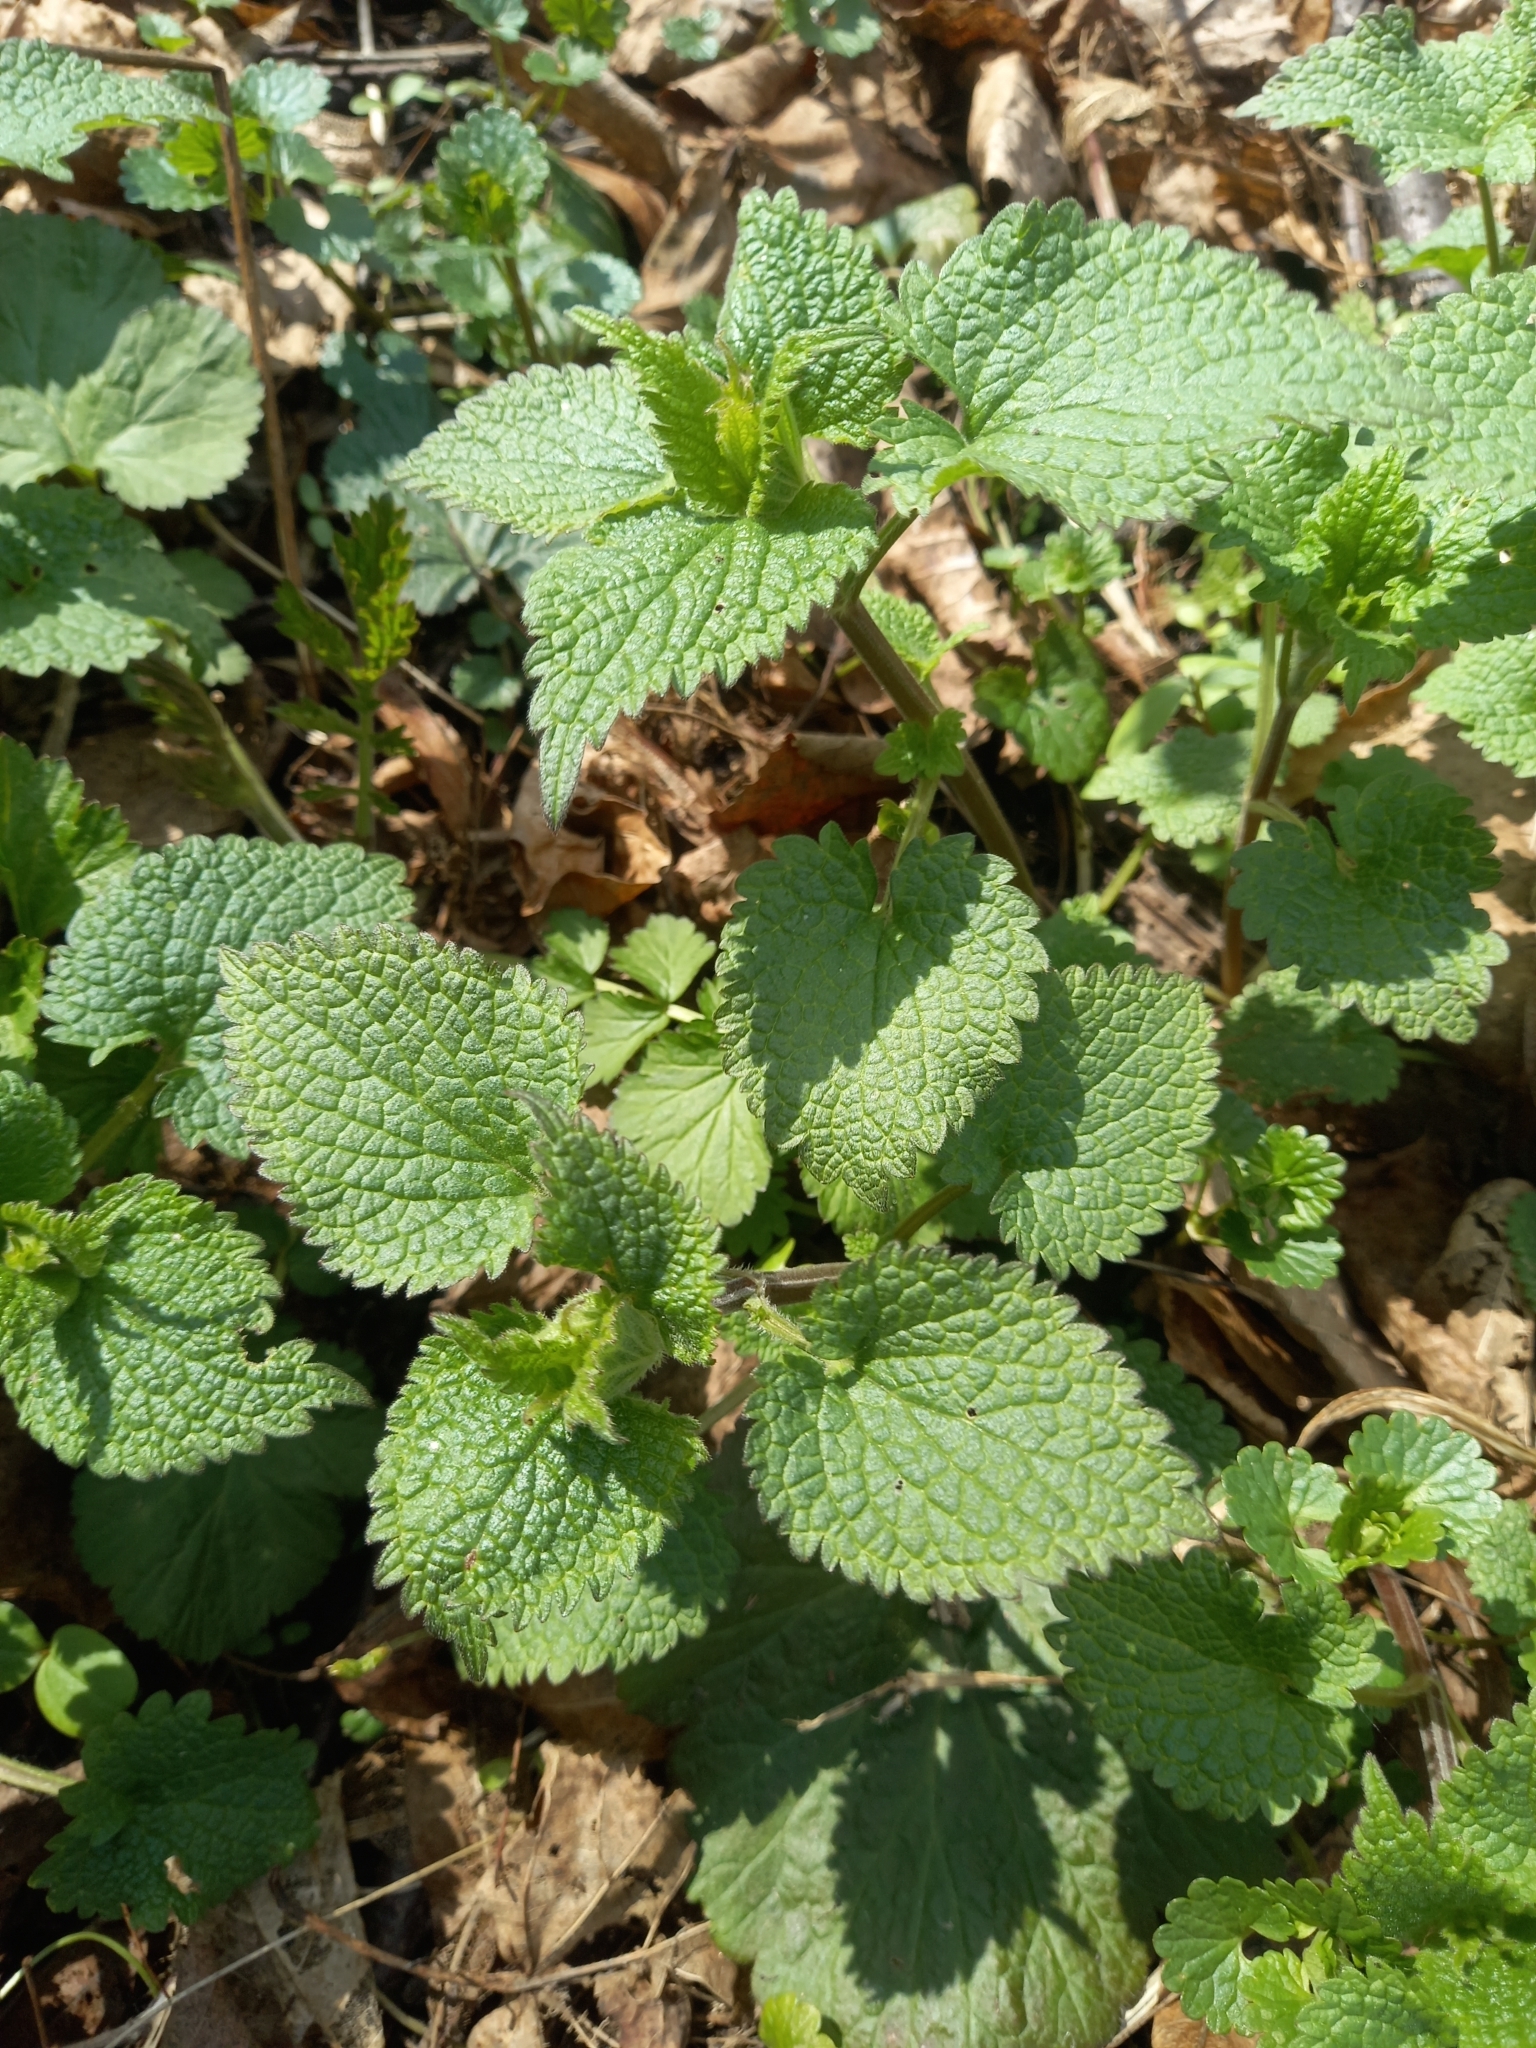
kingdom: Plantae
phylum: Tracheophyta
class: Magnoliopsida
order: Lamiales
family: Lamiaceae
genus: Lamium
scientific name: Lamium album
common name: White dead-nettle
